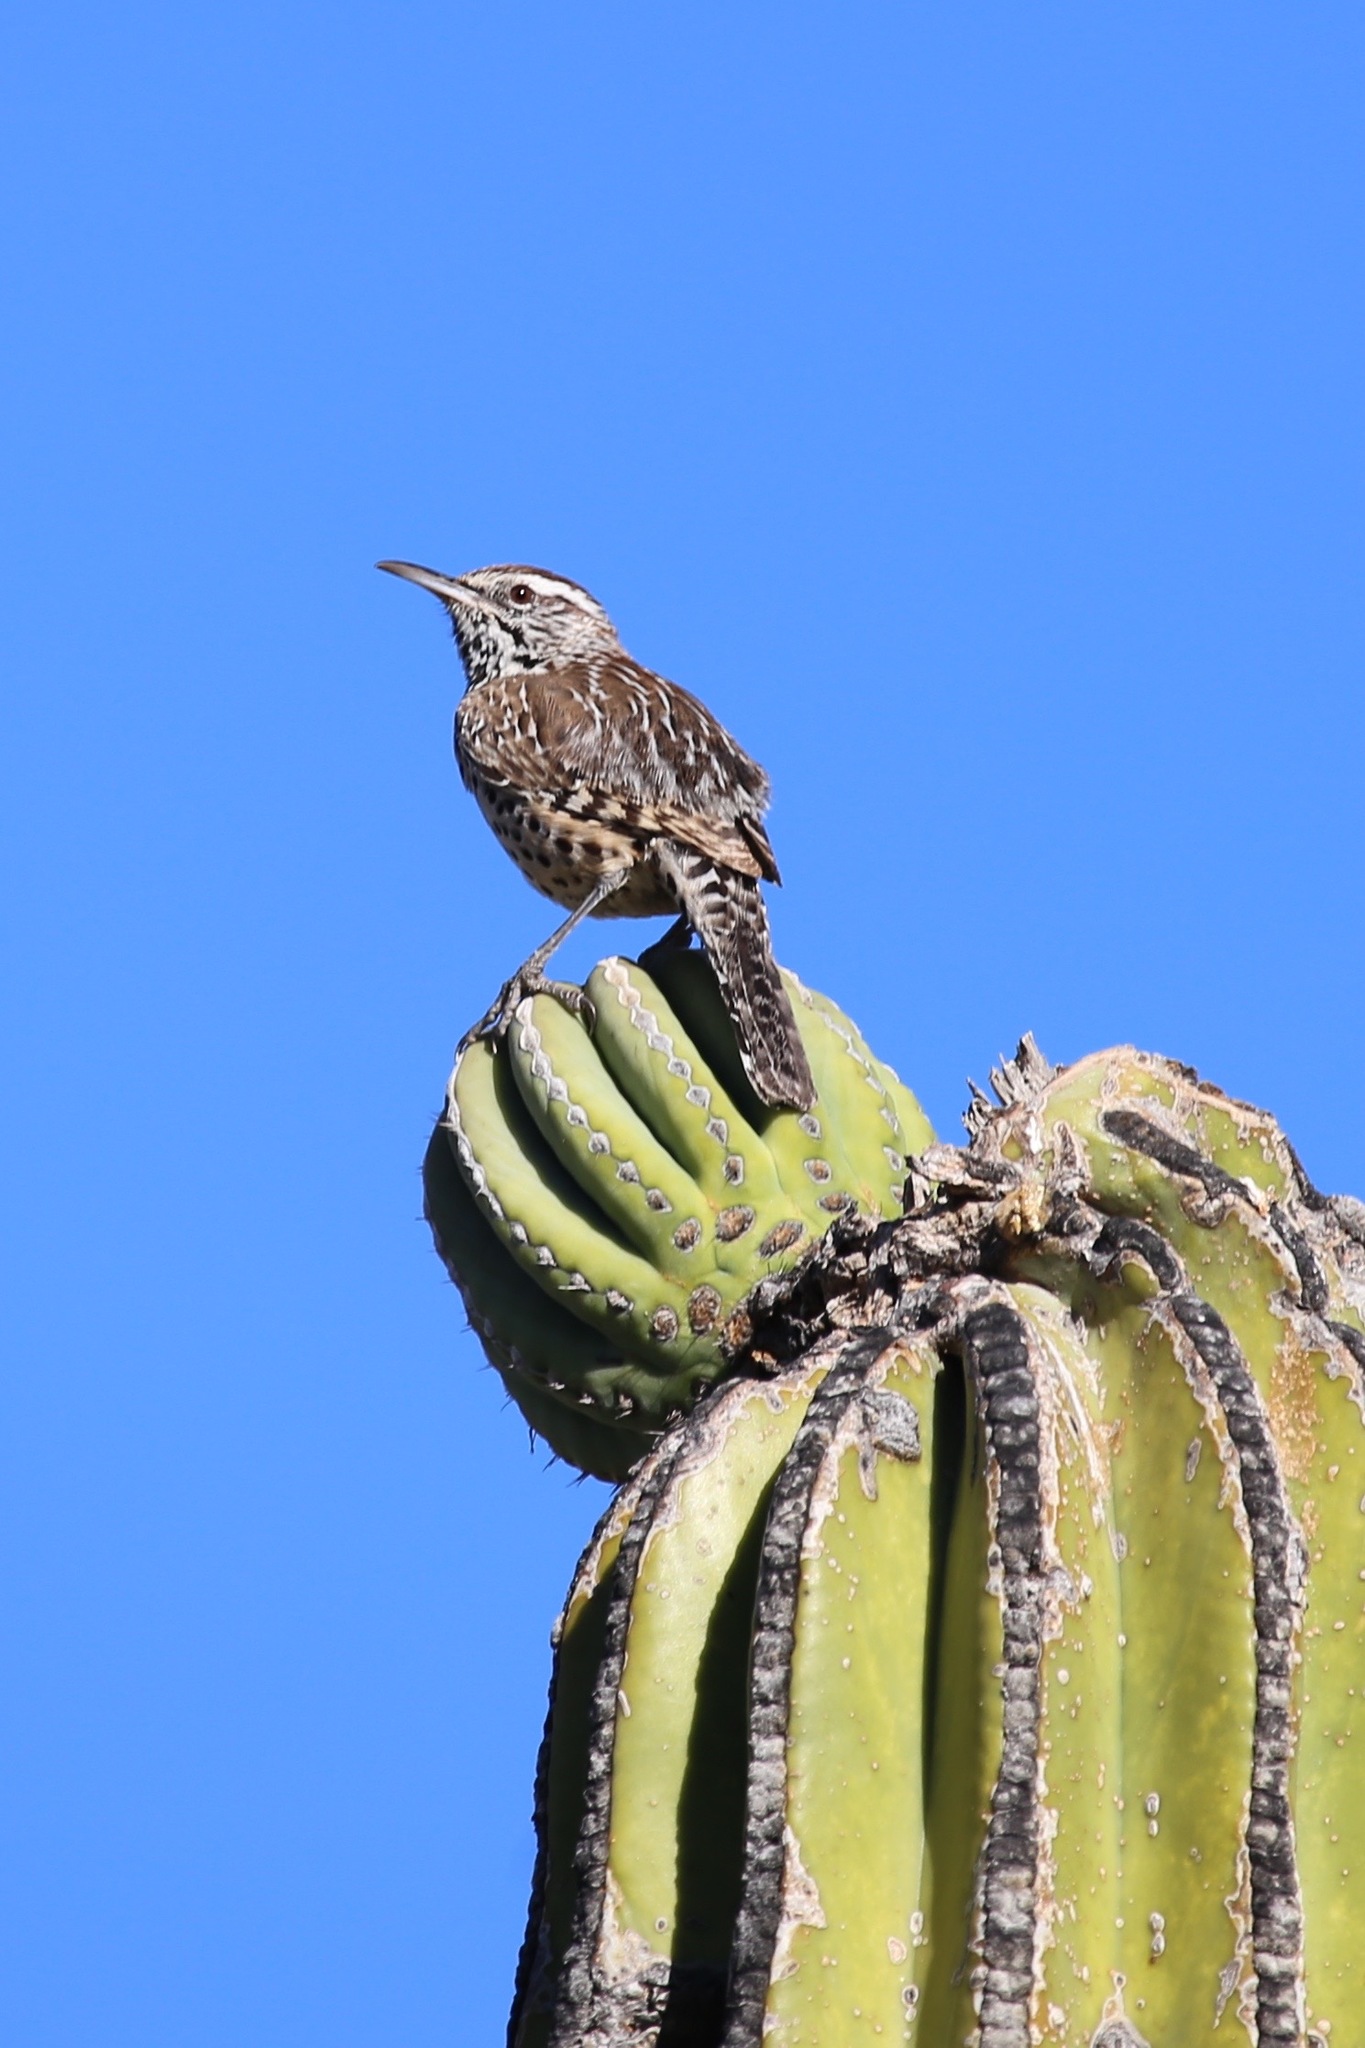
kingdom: Animalia
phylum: Chordata
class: Aves
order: Passeriformes
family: Troglodytidae
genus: Campylorhynchus
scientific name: Campylorhynchus brunneicapillus
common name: Cactus wren
